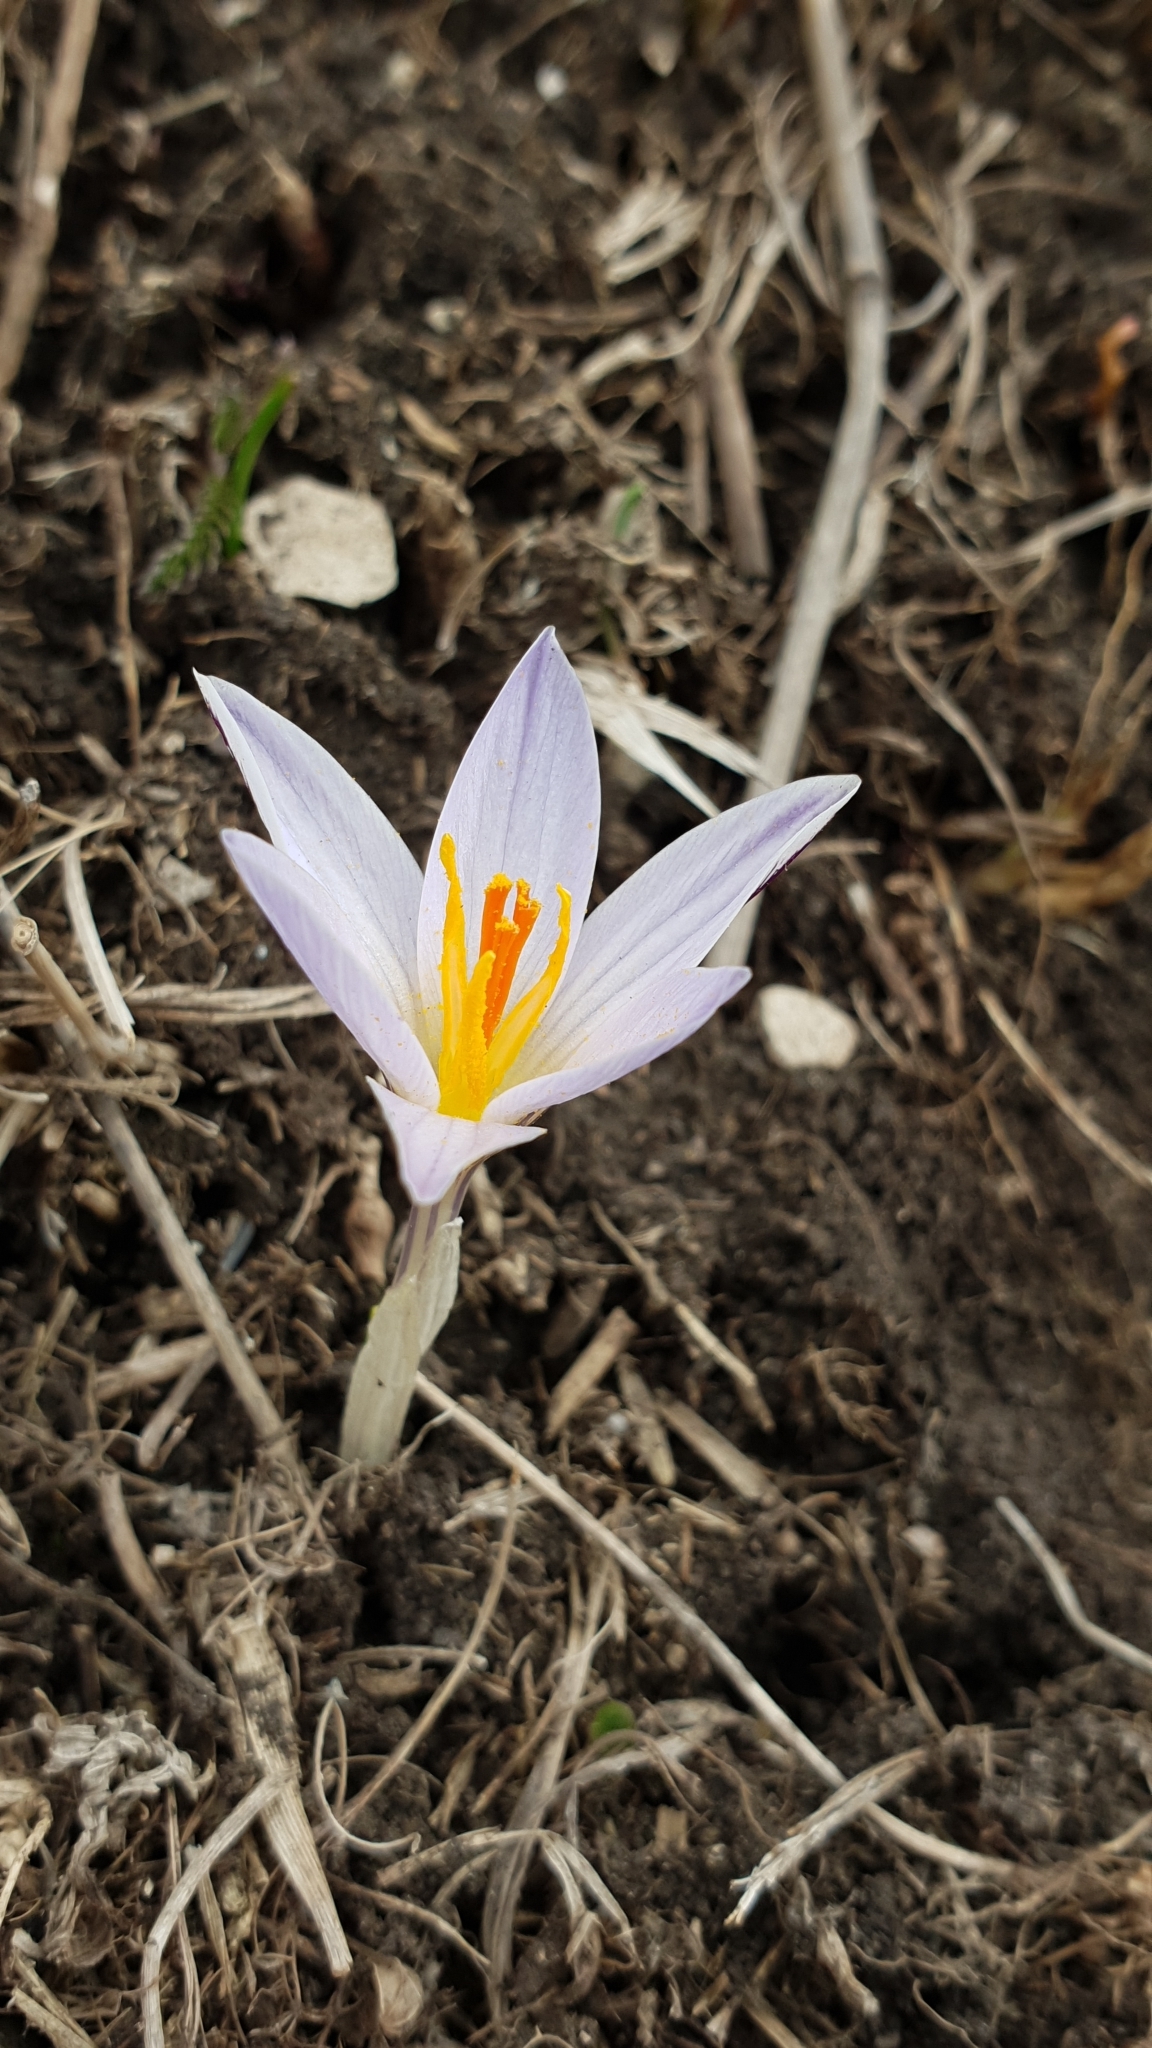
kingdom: Plantae
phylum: Tracheophyta
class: Liliopsida
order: Asparagales
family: Iridaceae
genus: Crocus
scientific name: Crocus reticulatus
